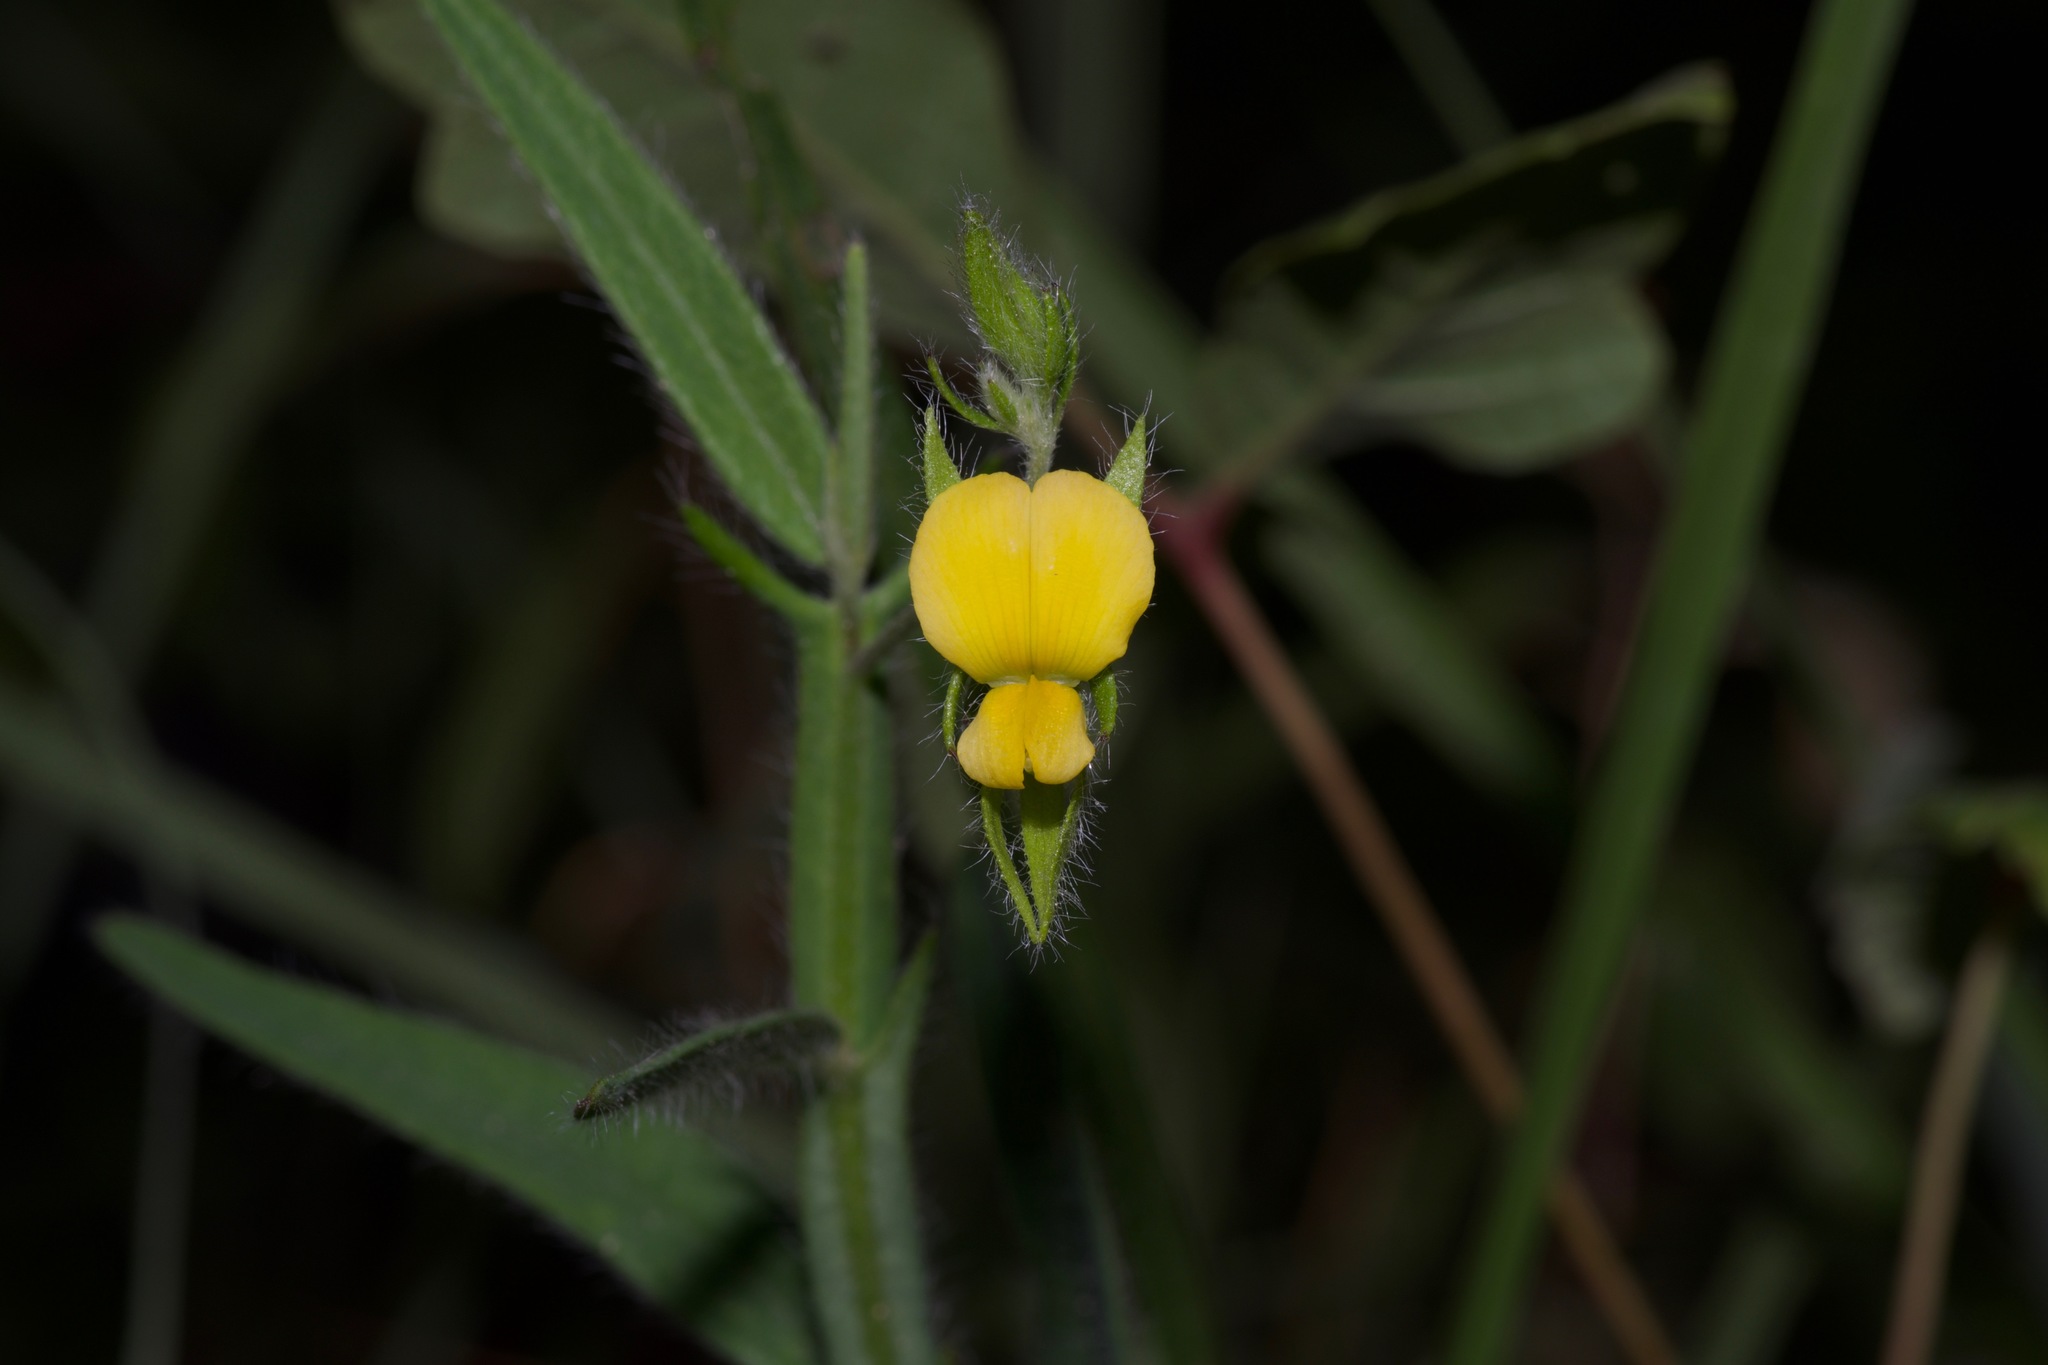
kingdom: Plantae
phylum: Tracheophyta
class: Magnoliopsida
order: Fabales
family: Fabaceae
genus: Stylosanthes
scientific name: Stylosanthes biflora
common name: Two-flower pencil-flower
